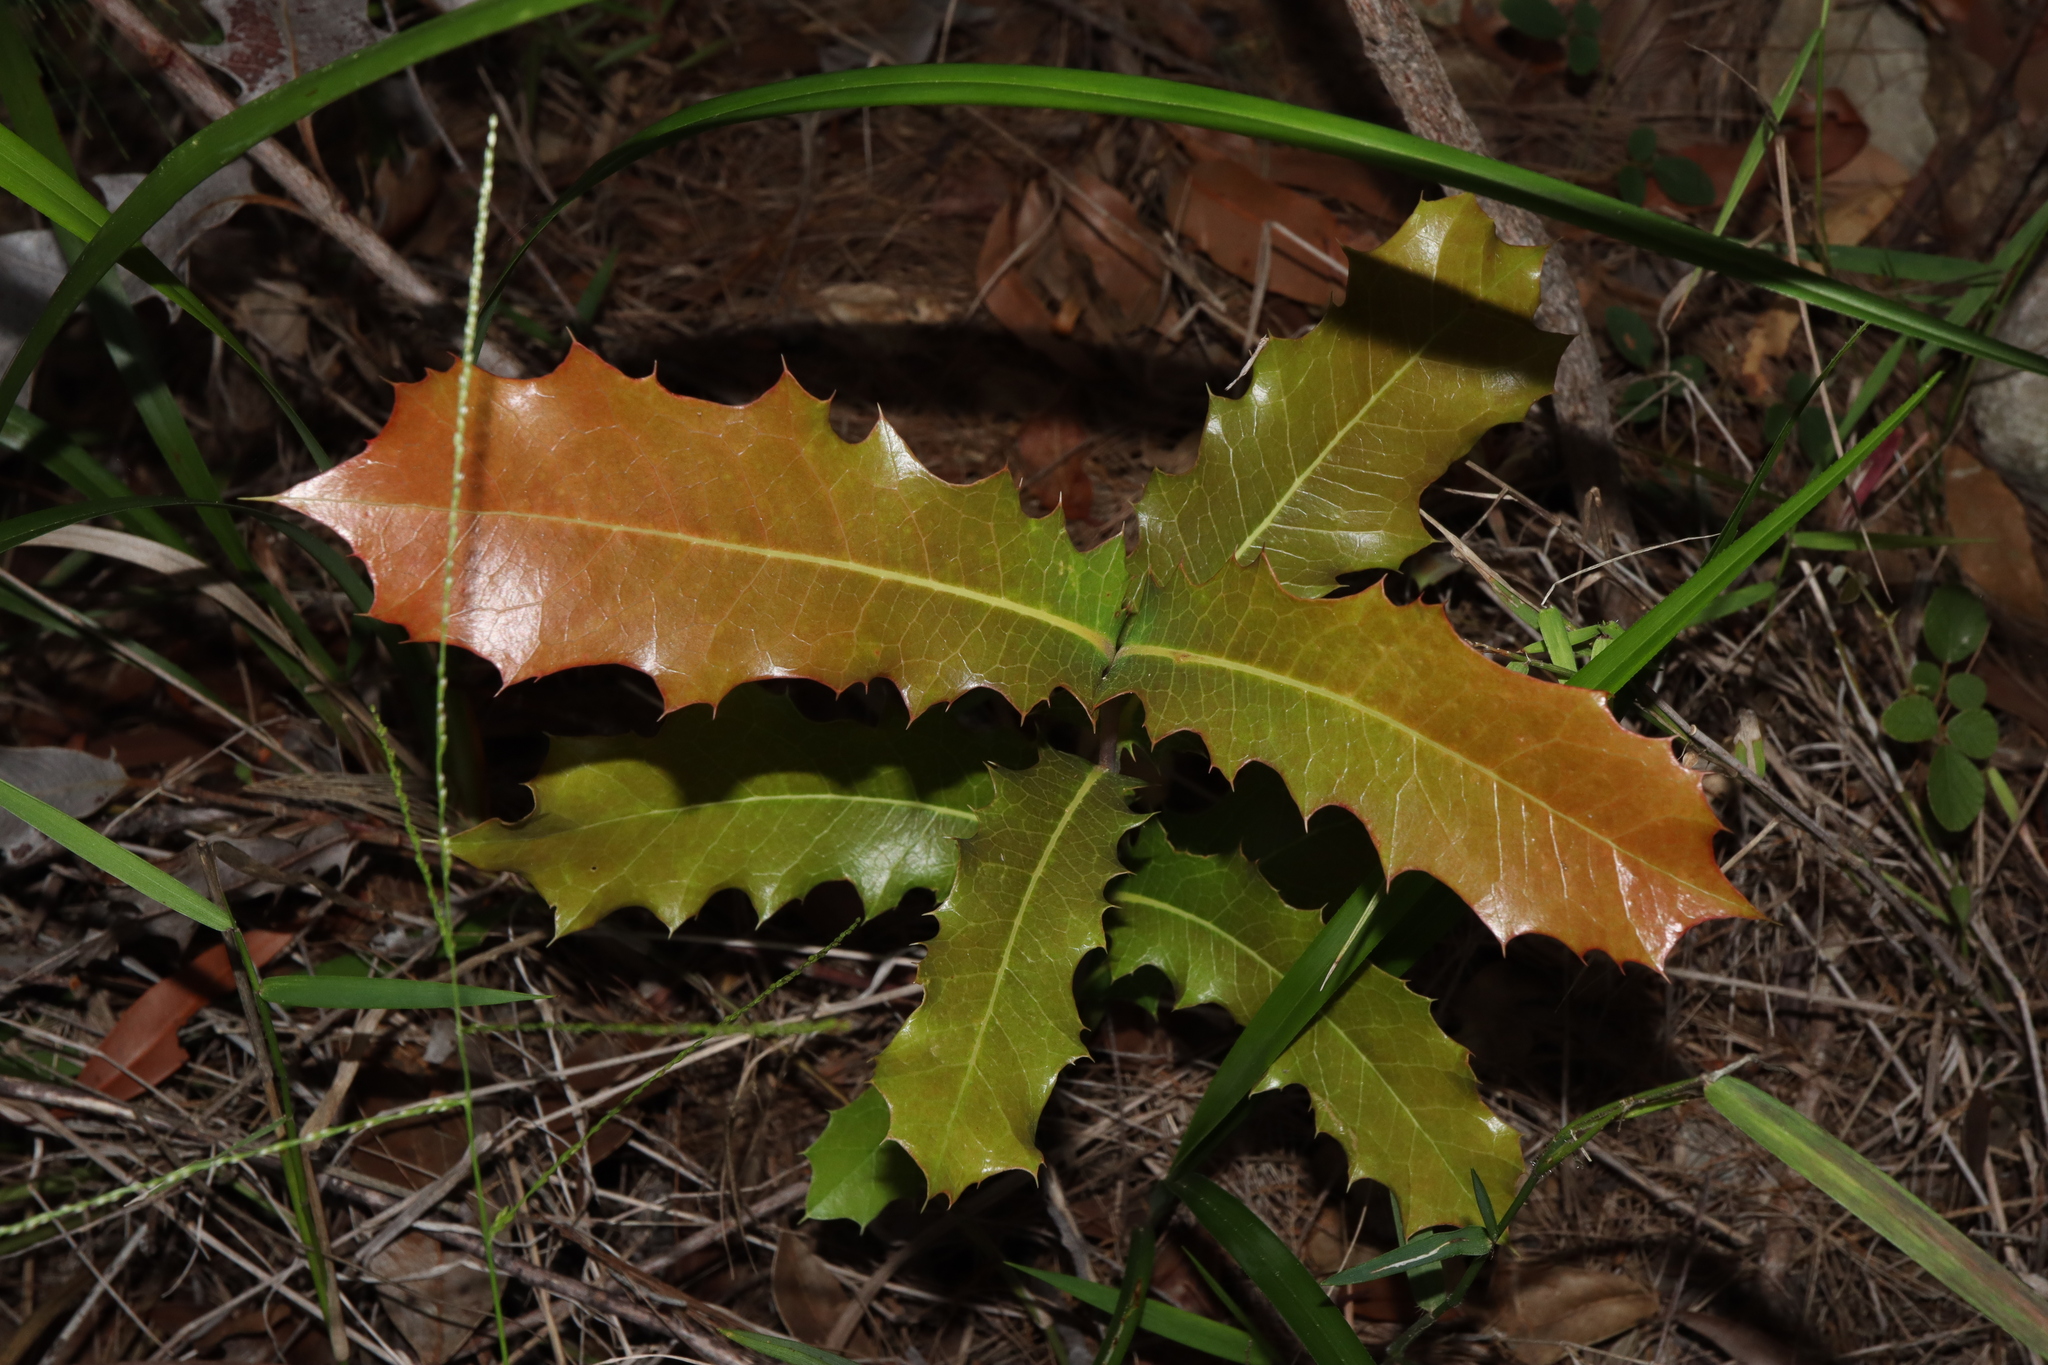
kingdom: Plantae
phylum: Tracheophyta
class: Magnoliopsida
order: Proteales
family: Proteaceae
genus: Xylomelum
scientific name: Xylomelum pyriforme
